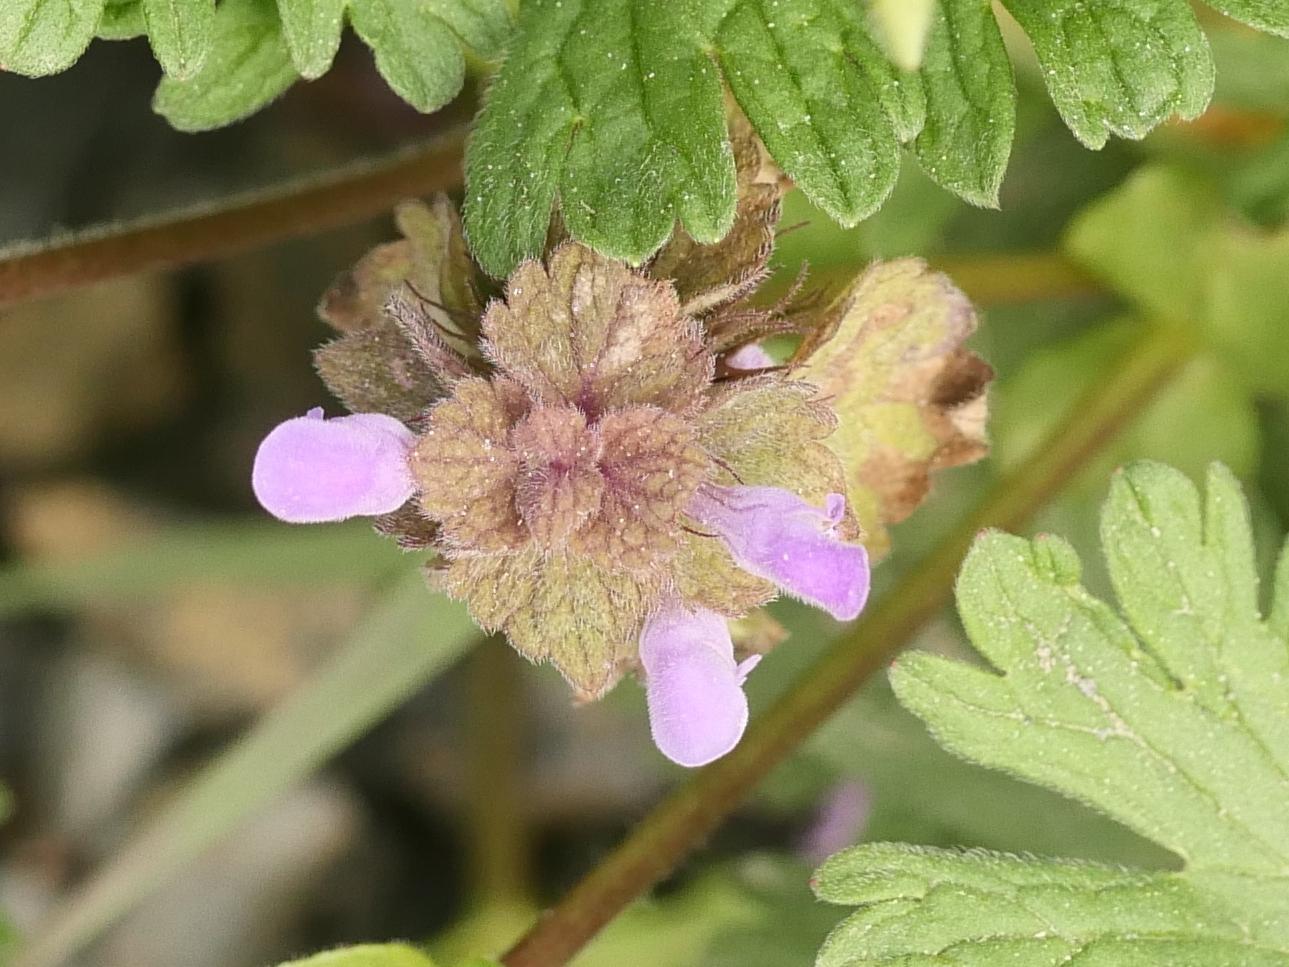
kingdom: Plantae
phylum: Tracheophyta
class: Magnoliopsida
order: Lamiales
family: Lamiaceae
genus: Lamium
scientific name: Lamium purpureum
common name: Red dead-nettle
